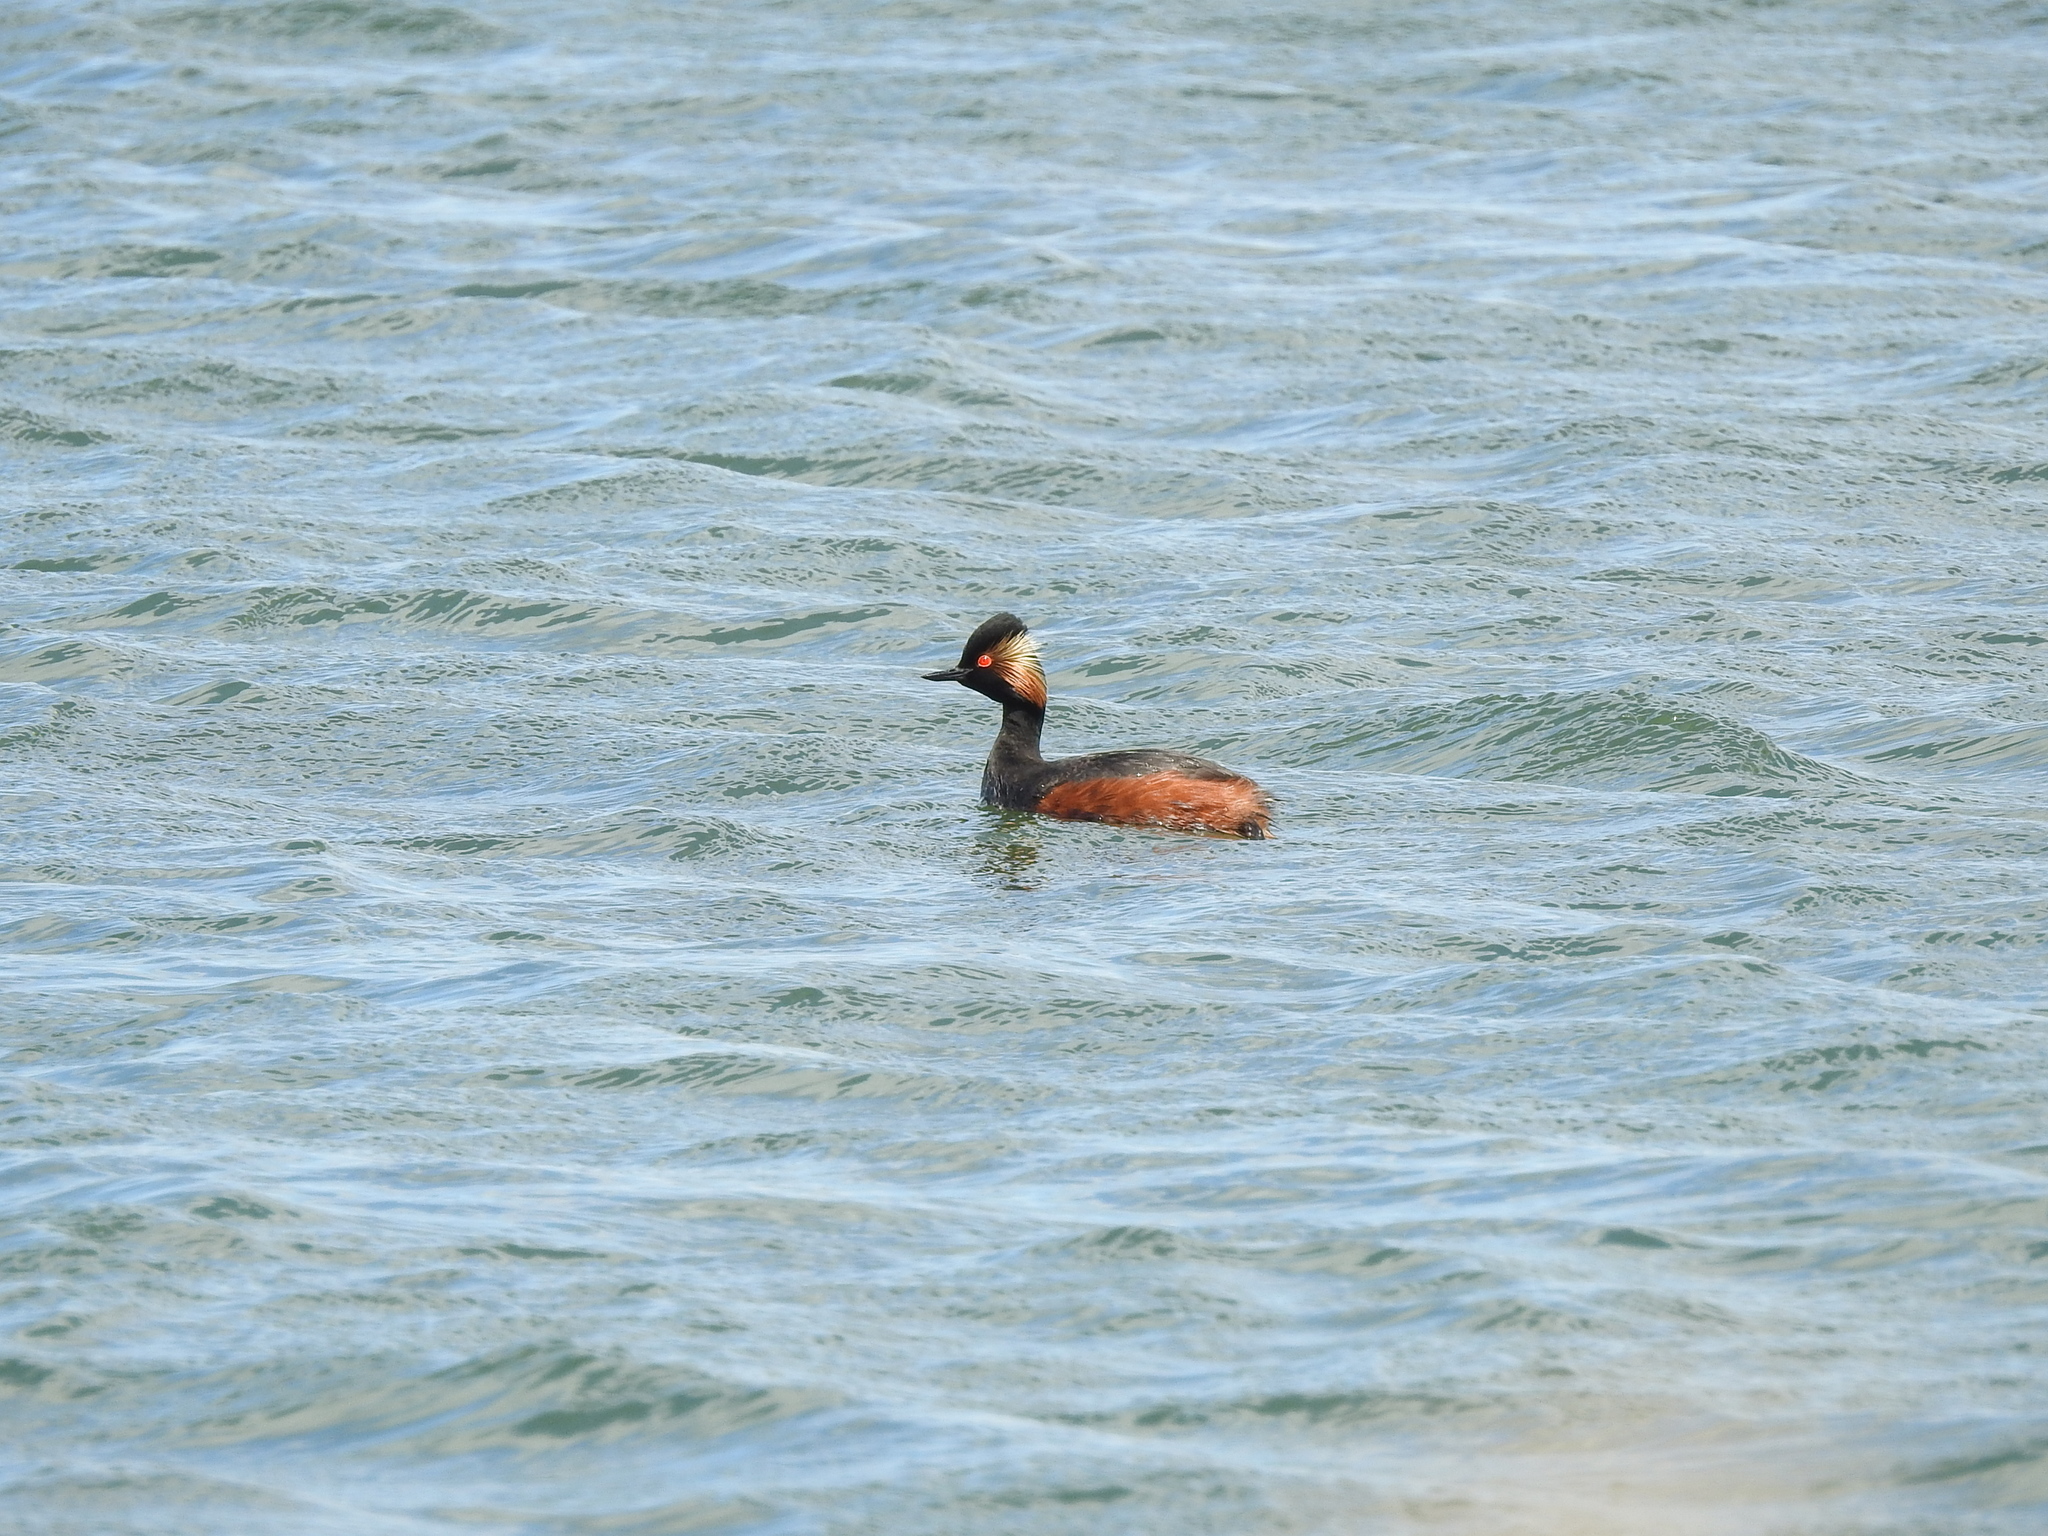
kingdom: Animalia
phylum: Chordata
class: Aves
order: Podicipediformes
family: Podicipedidae
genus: Podiceps
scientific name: Podiceps nigricollis
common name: Black-necked grebe
